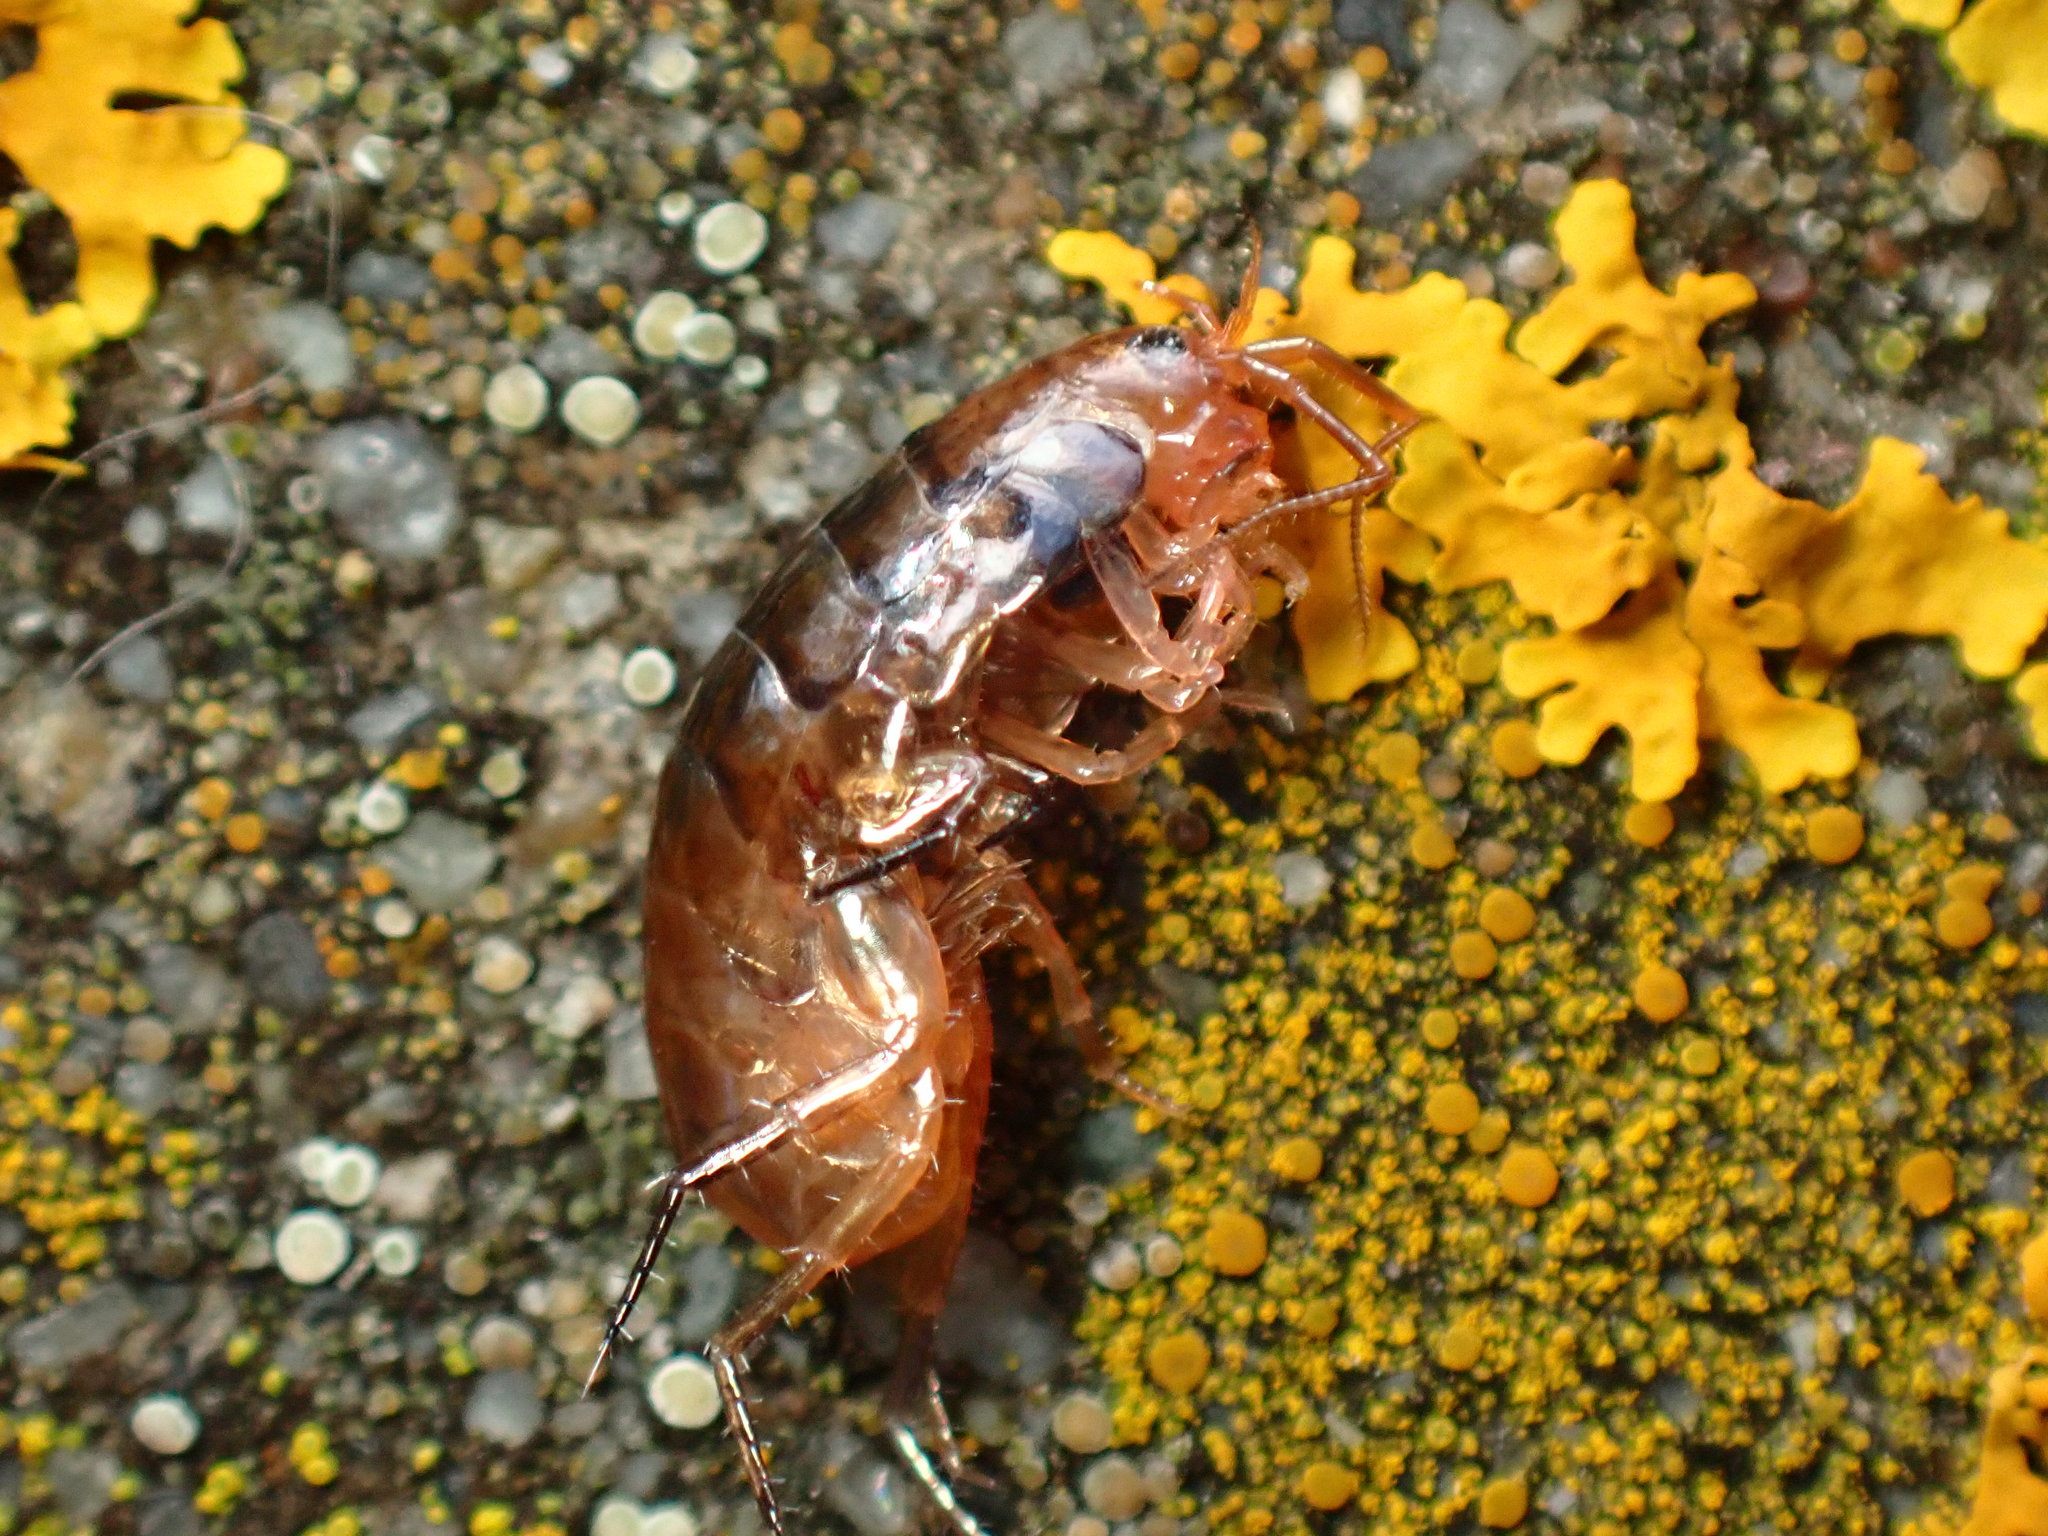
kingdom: Animalia
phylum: Arthropoda
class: Malacostraca
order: Amphipoda
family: Arcitalitridae
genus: Arcitalitrus
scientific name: Arcitalitrus sylvaticus
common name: Gammarid amphipod
